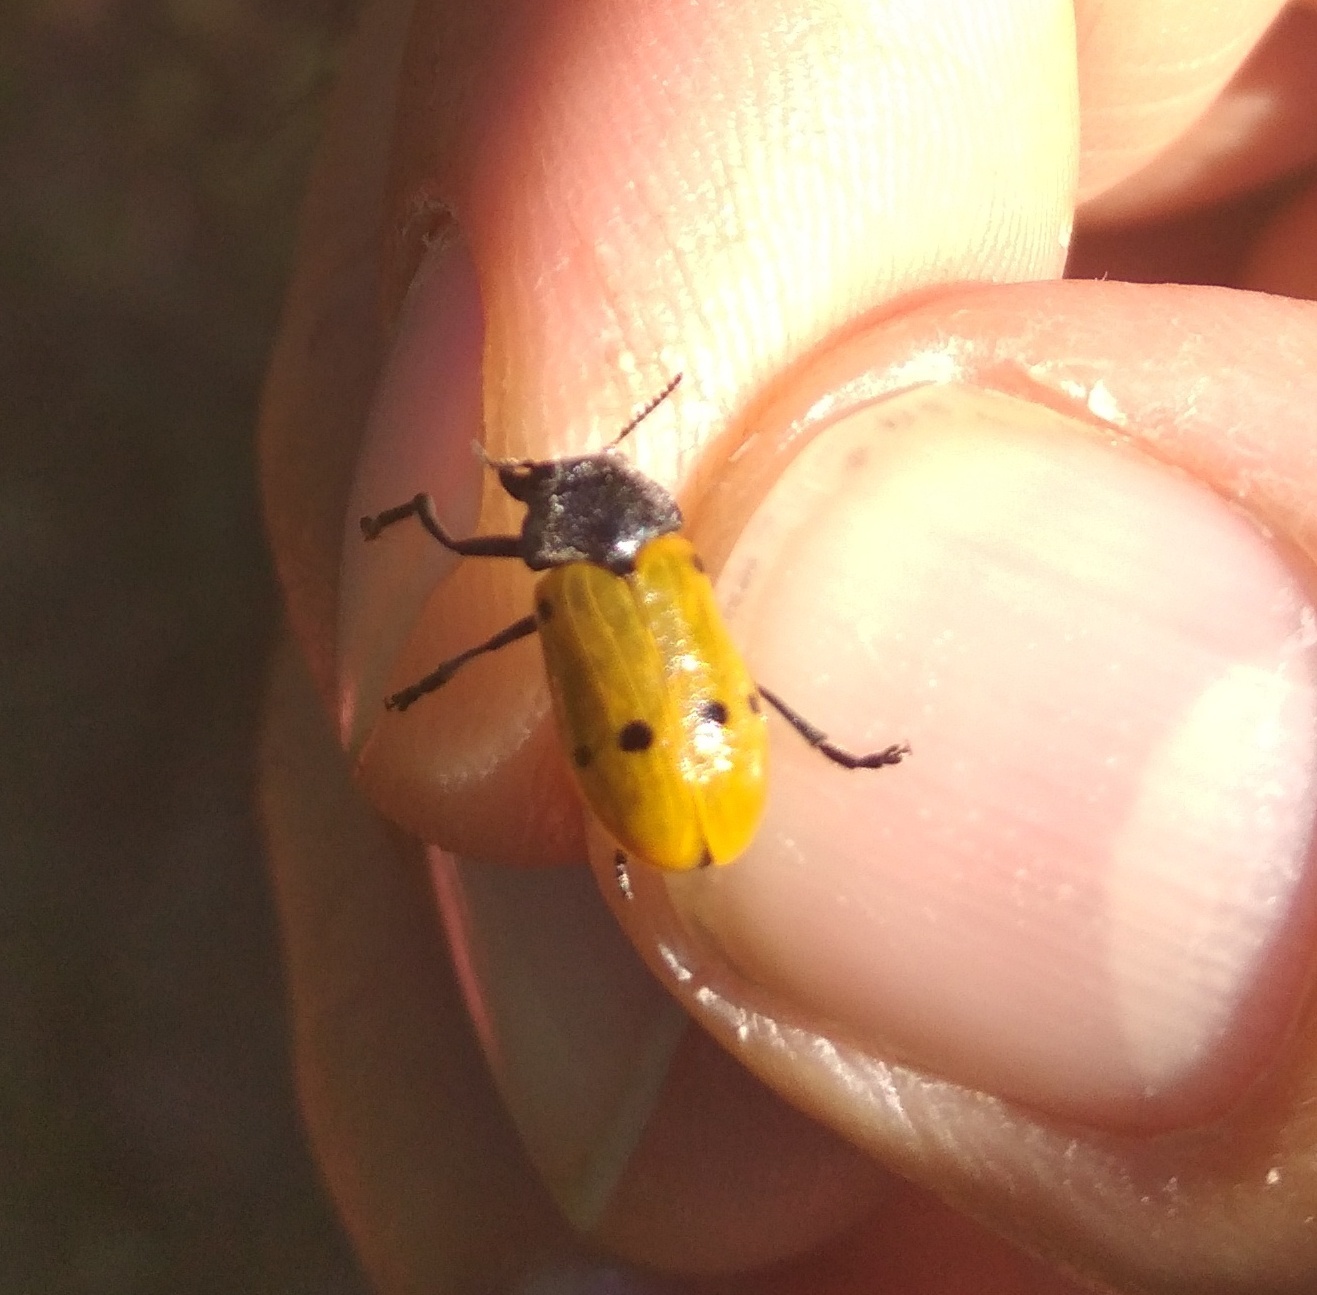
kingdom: Animalia
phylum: Arthropoda
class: Insecta
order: Coleoptera
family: Chrysomelidae
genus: Lachnaia
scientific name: Lachnaia italica
